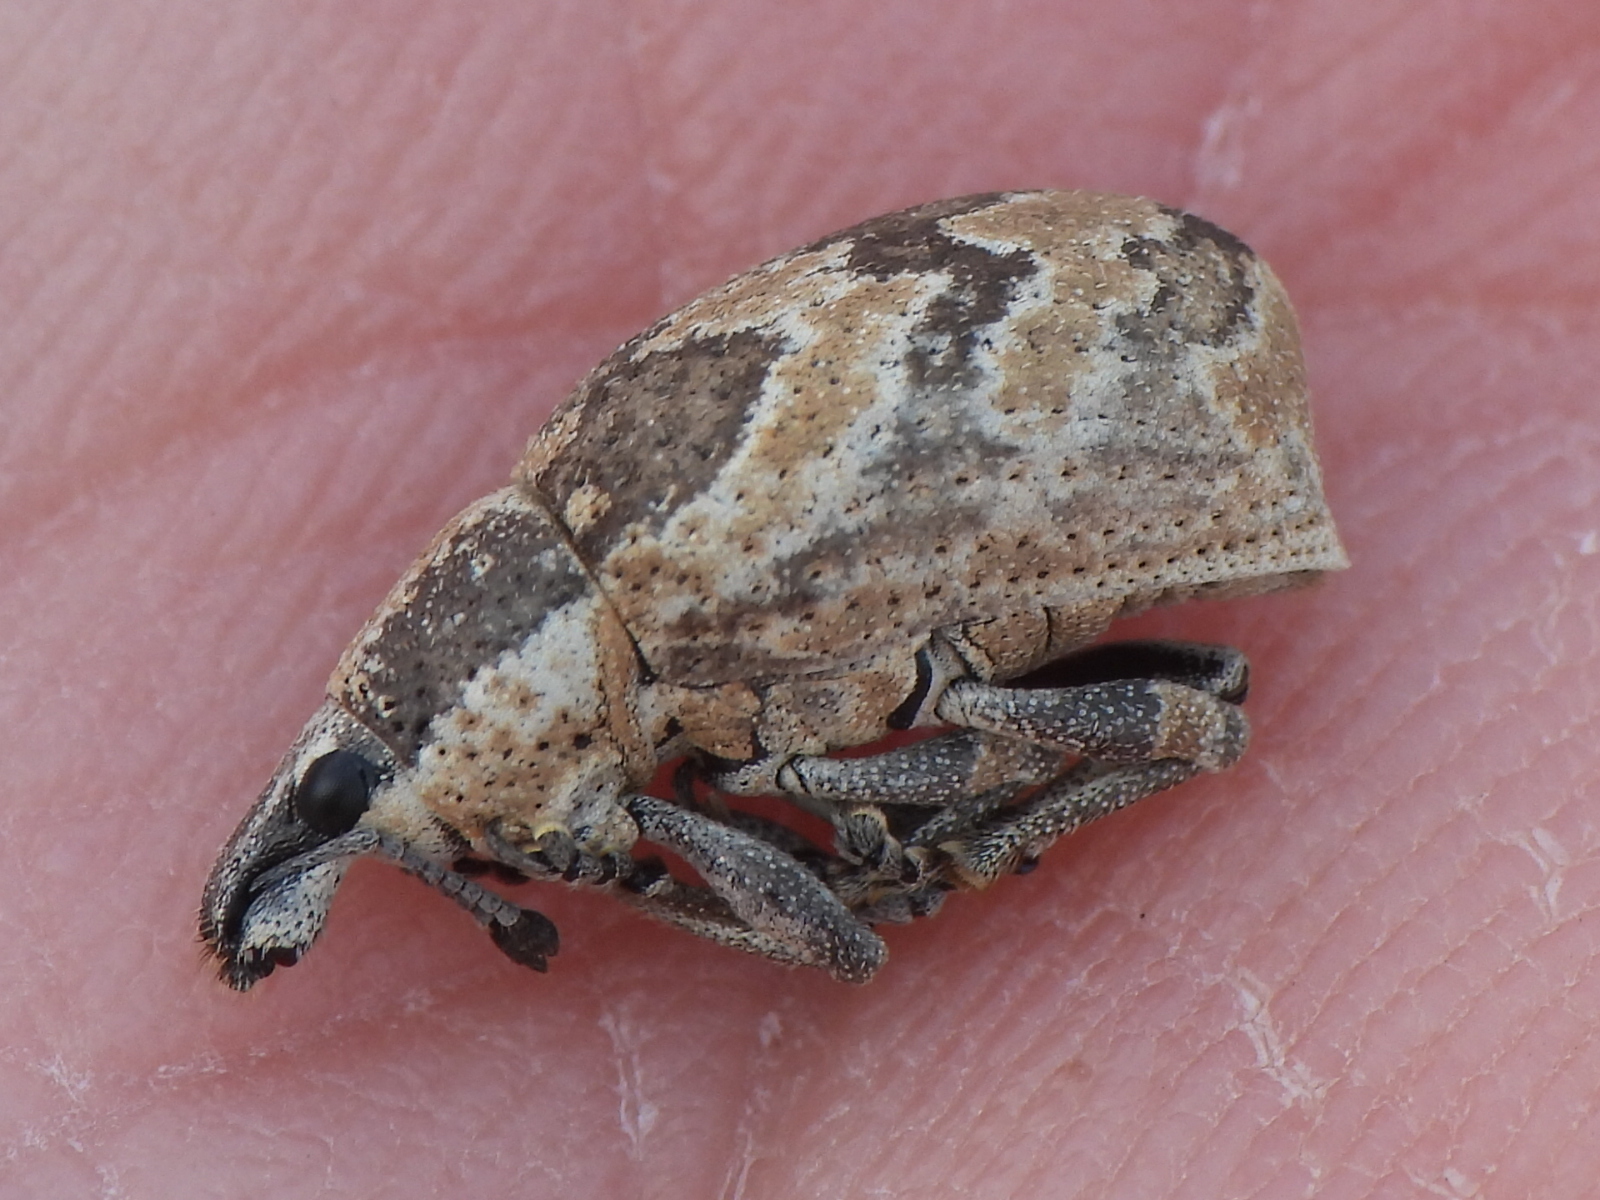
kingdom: Animalia
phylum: Arthropoda
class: Insecta
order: Coleoptera
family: Curculionidae
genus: Epicaerus
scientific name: Epicaerus imbricatus
